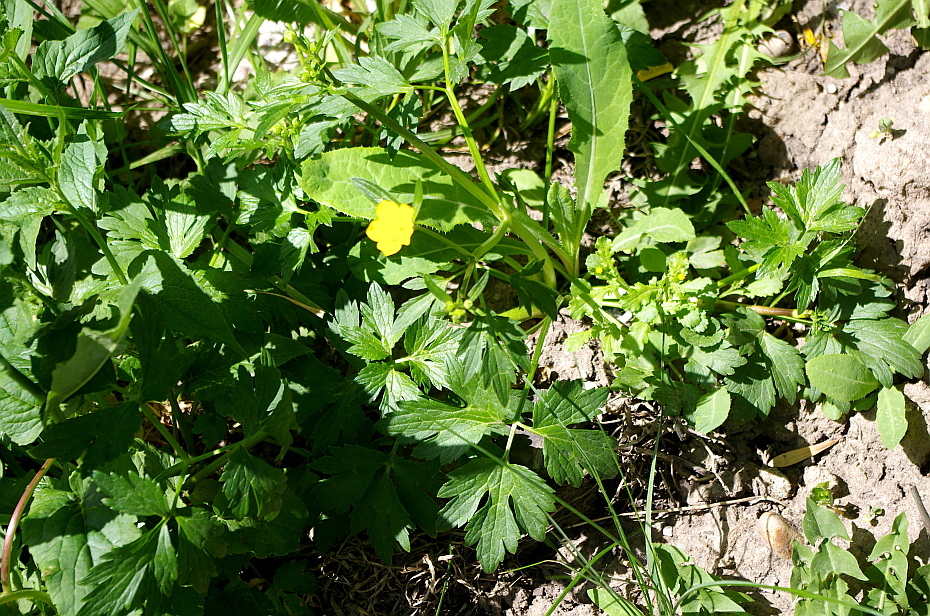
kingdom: Plantae
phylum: Tracheophyta
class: Magnoliopsida
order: Ranunculales
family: Ranunculaceae
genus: Ranunculus
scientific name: Ranunculus repens
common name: Creeping buttercup
